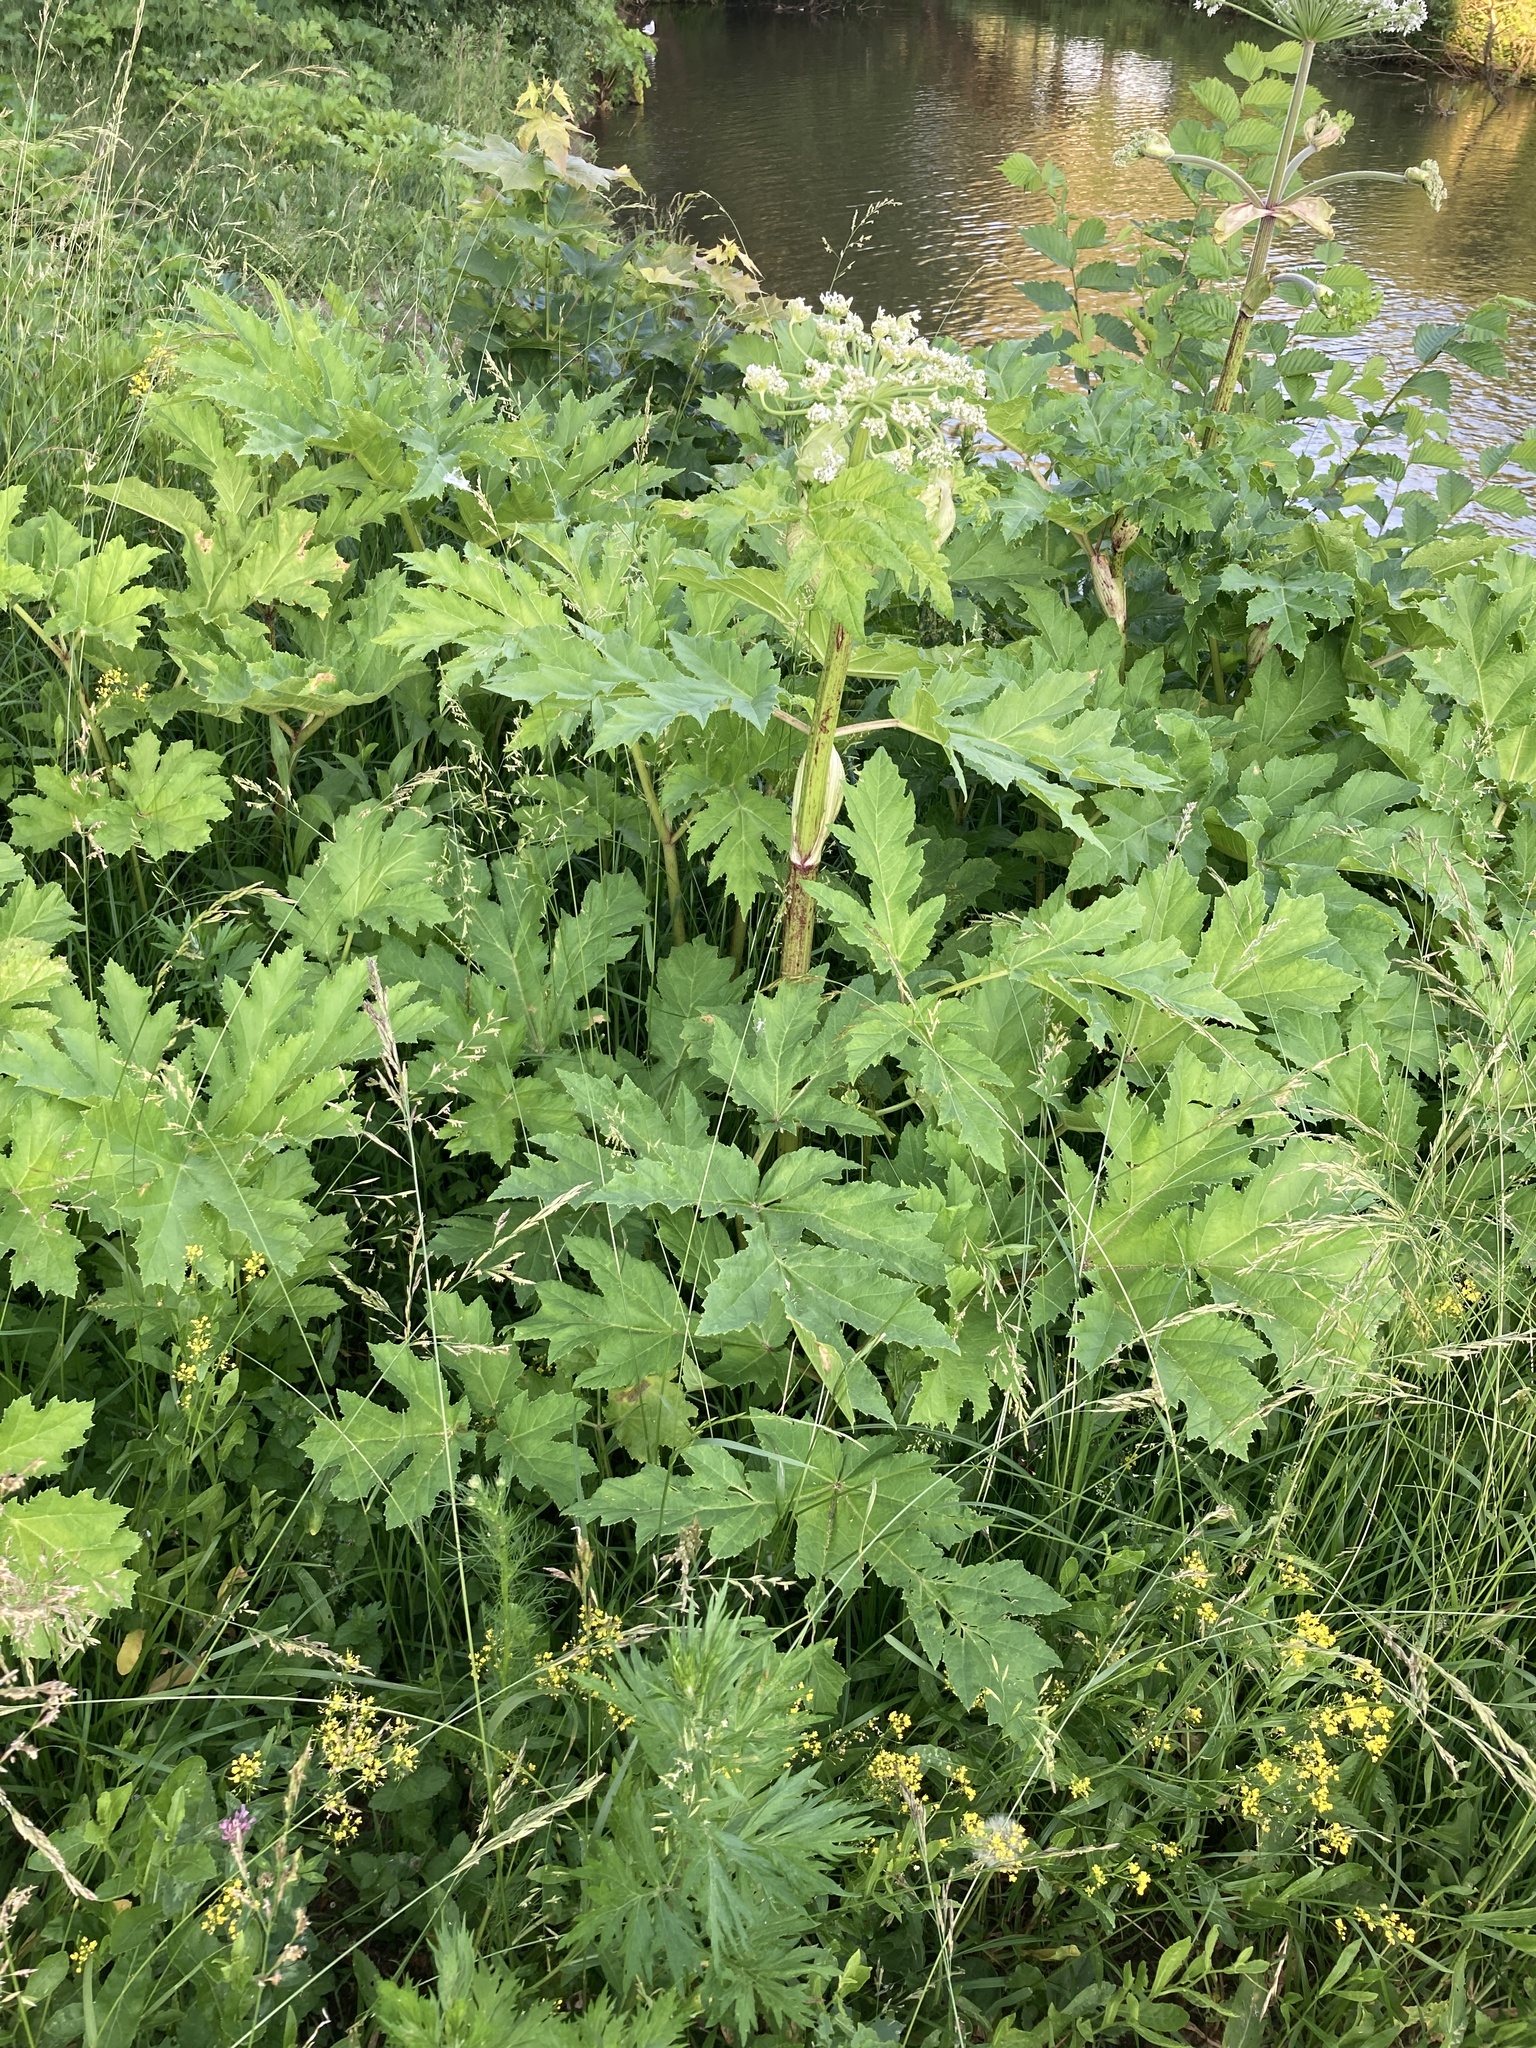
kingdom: Plantae
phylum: Tracheophyta
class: Magnoliopsida
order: Apiales
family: Apiaceae
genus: Heracleum
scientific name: Heracleum sosnowskyi
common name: Sosnowsky's hogweed
